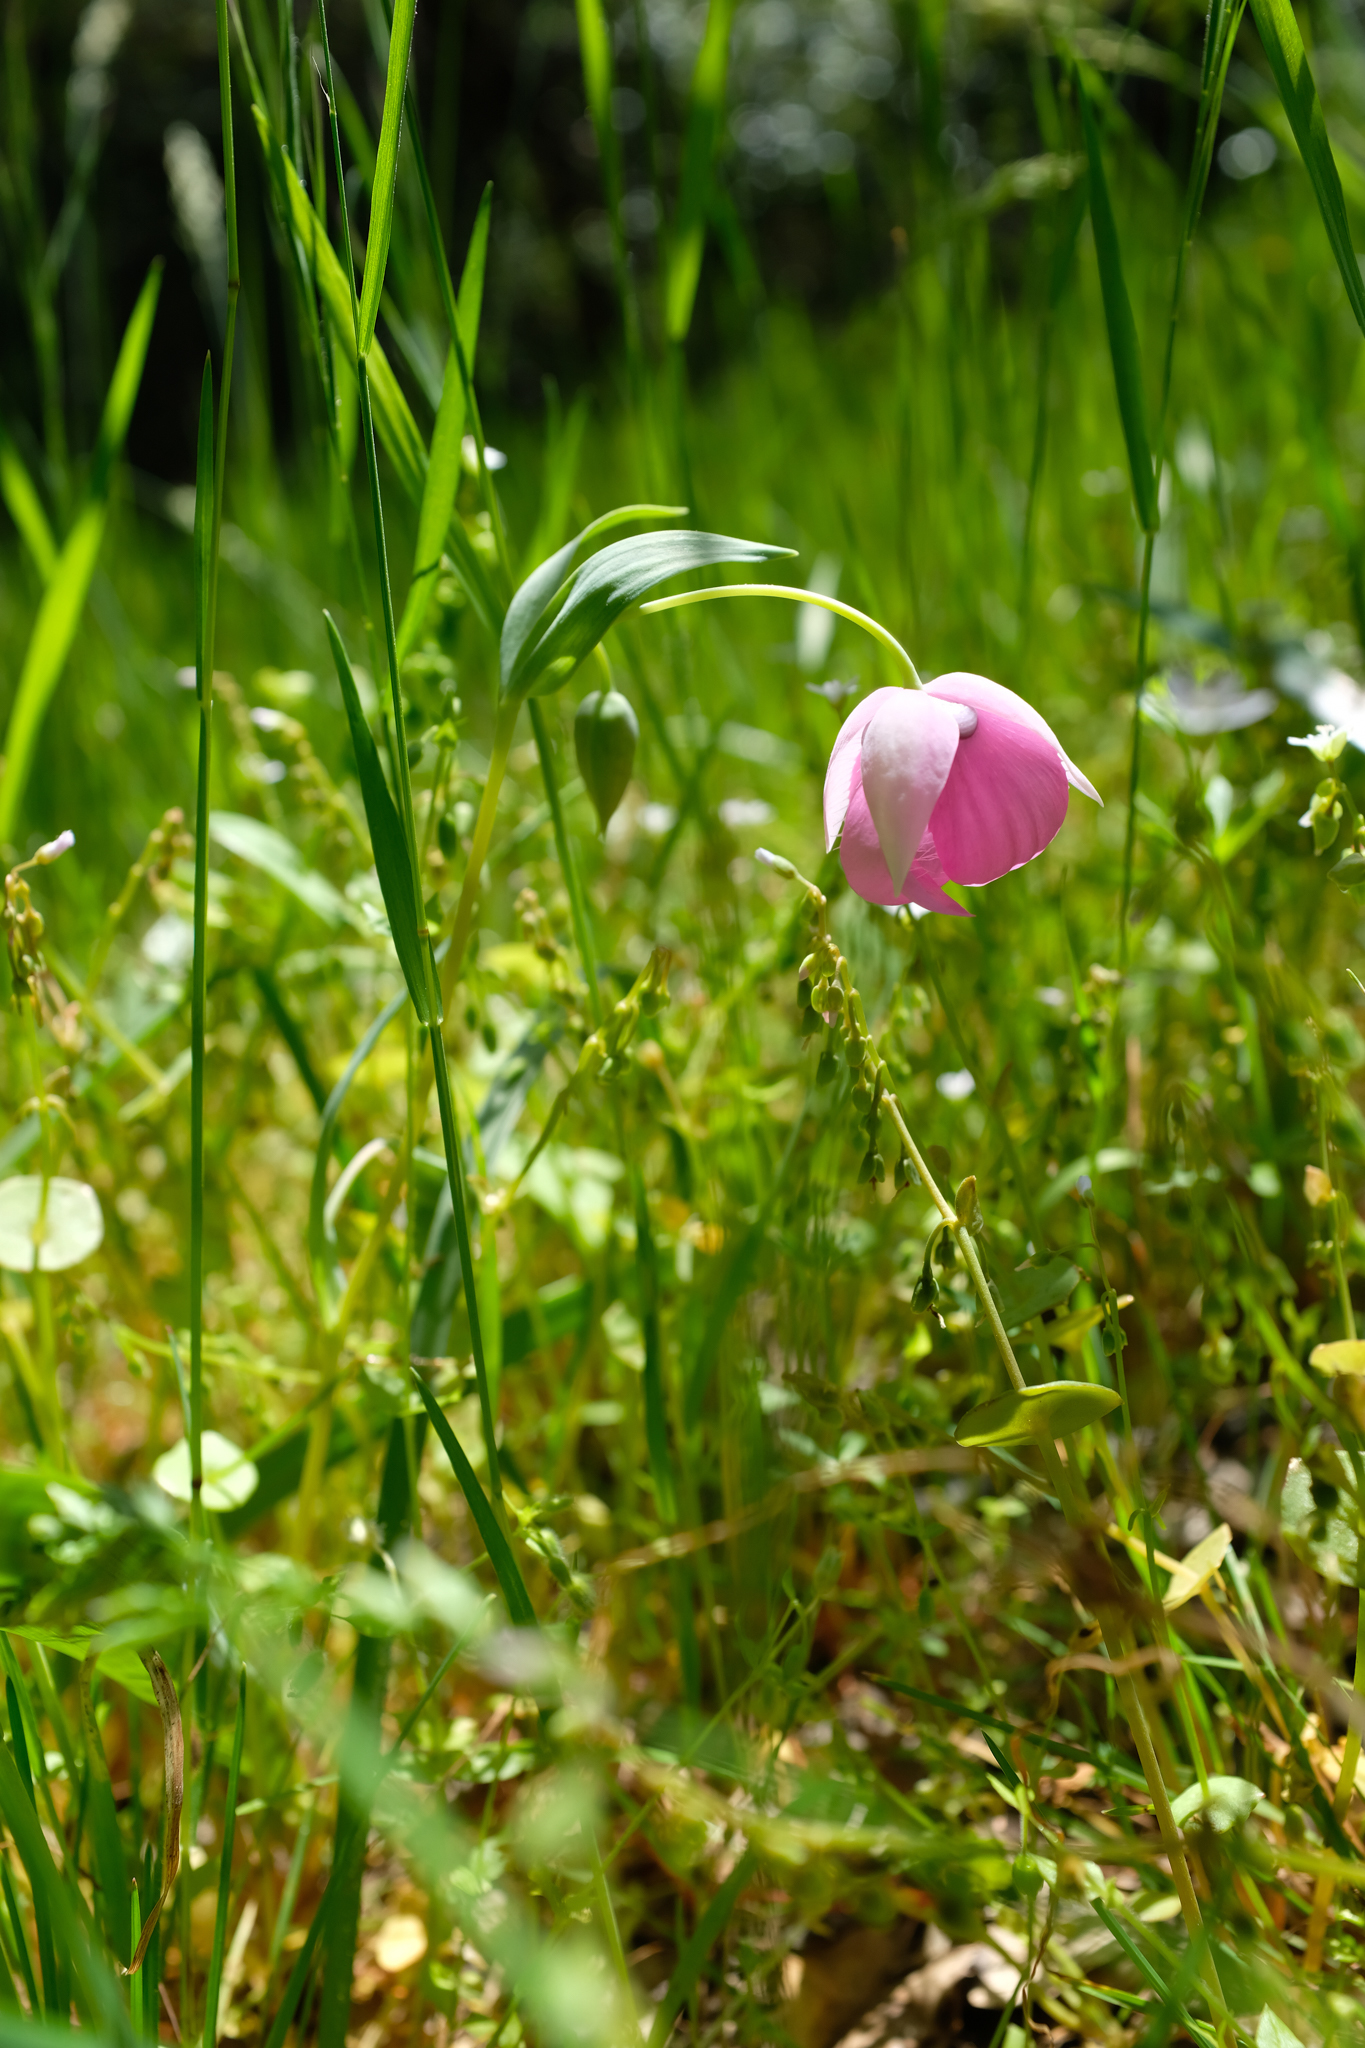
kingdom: Plantae
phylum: Tracheophyta
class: Liliopsida
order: Liliales
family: Liliaceae
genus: Calochortus
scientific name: Calochortus amoenus
